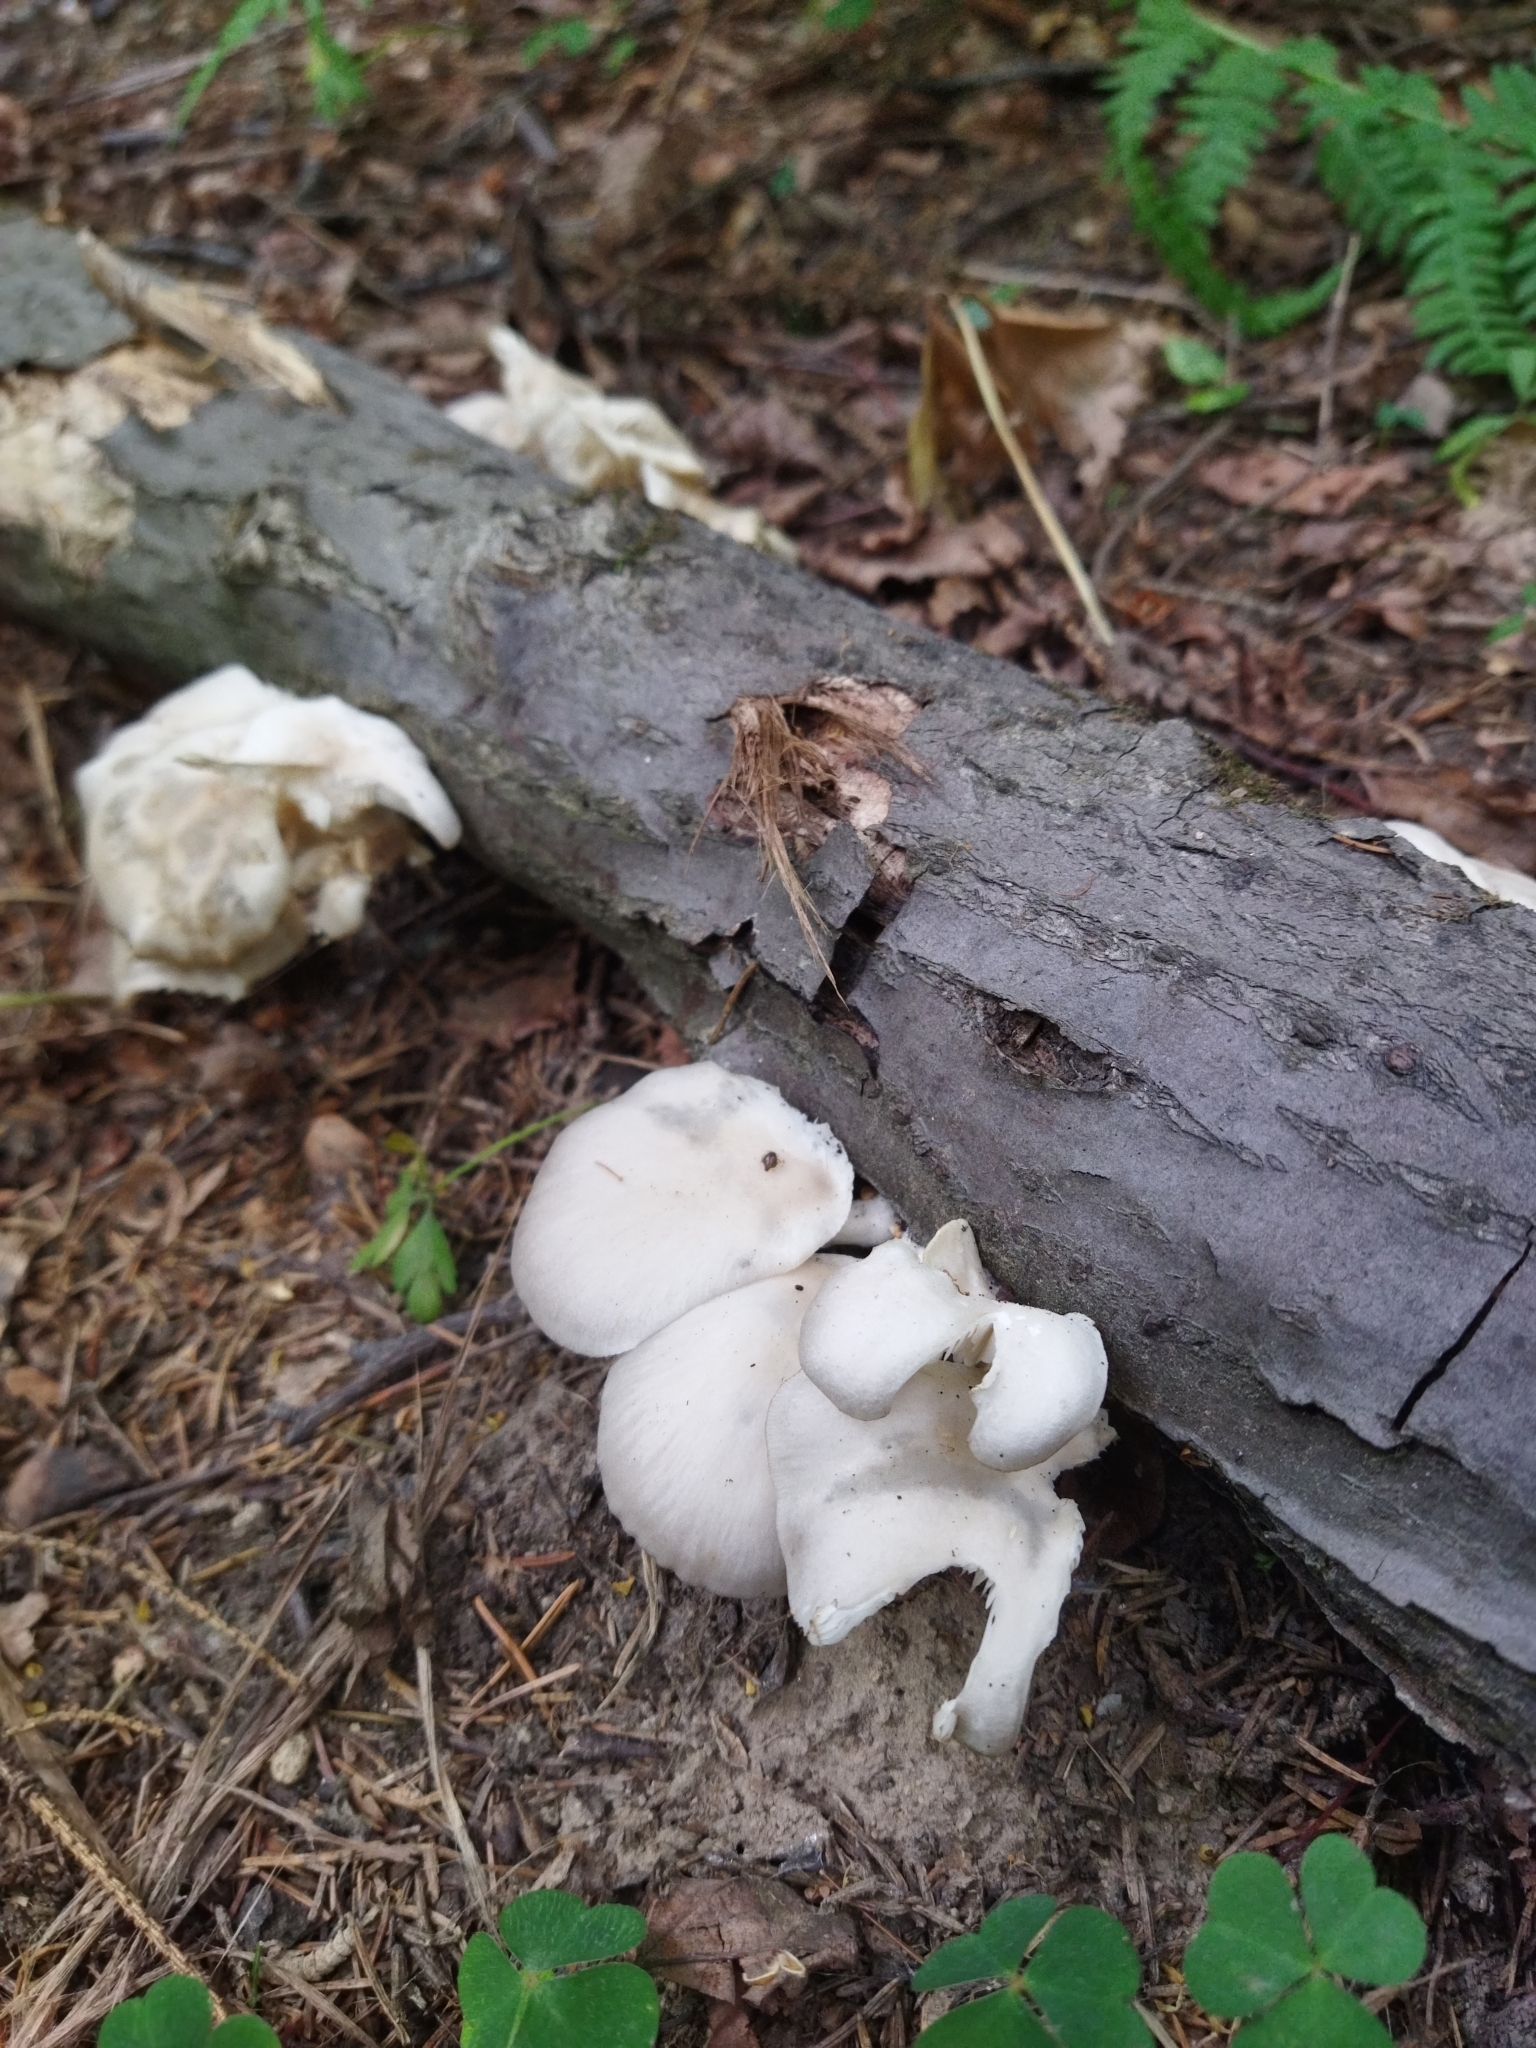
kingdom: Fungi
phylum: Basidiomycota
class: Agaricomycetes
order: Agaricales
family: Pleurotaceae
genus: Pleurotus
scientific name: Pleurotus pulmonarius
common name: Pale oyster
